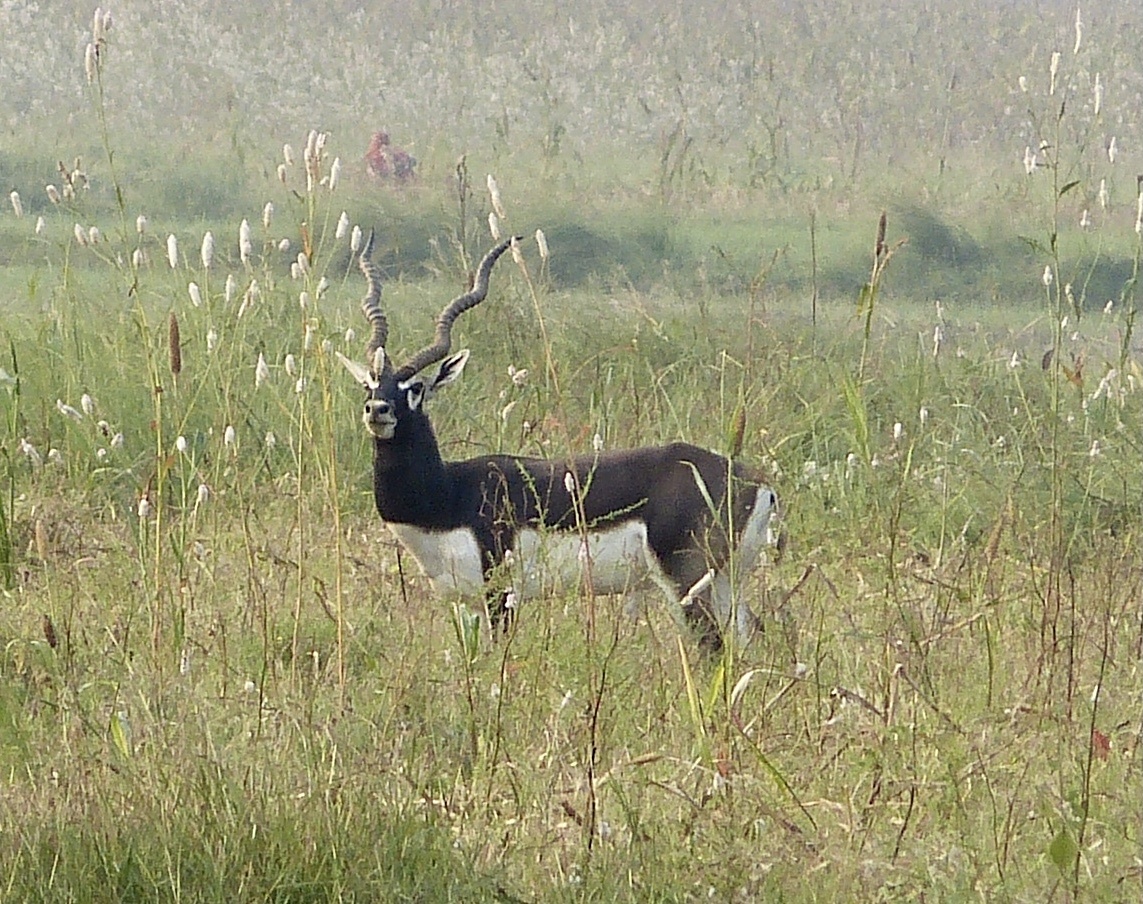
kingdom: Animalia
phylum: Chordata
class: Mammalia
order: Artiodactyla
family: Bovidae
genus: Antilope
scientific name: Antilope cervicapra
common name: Blackbuck
